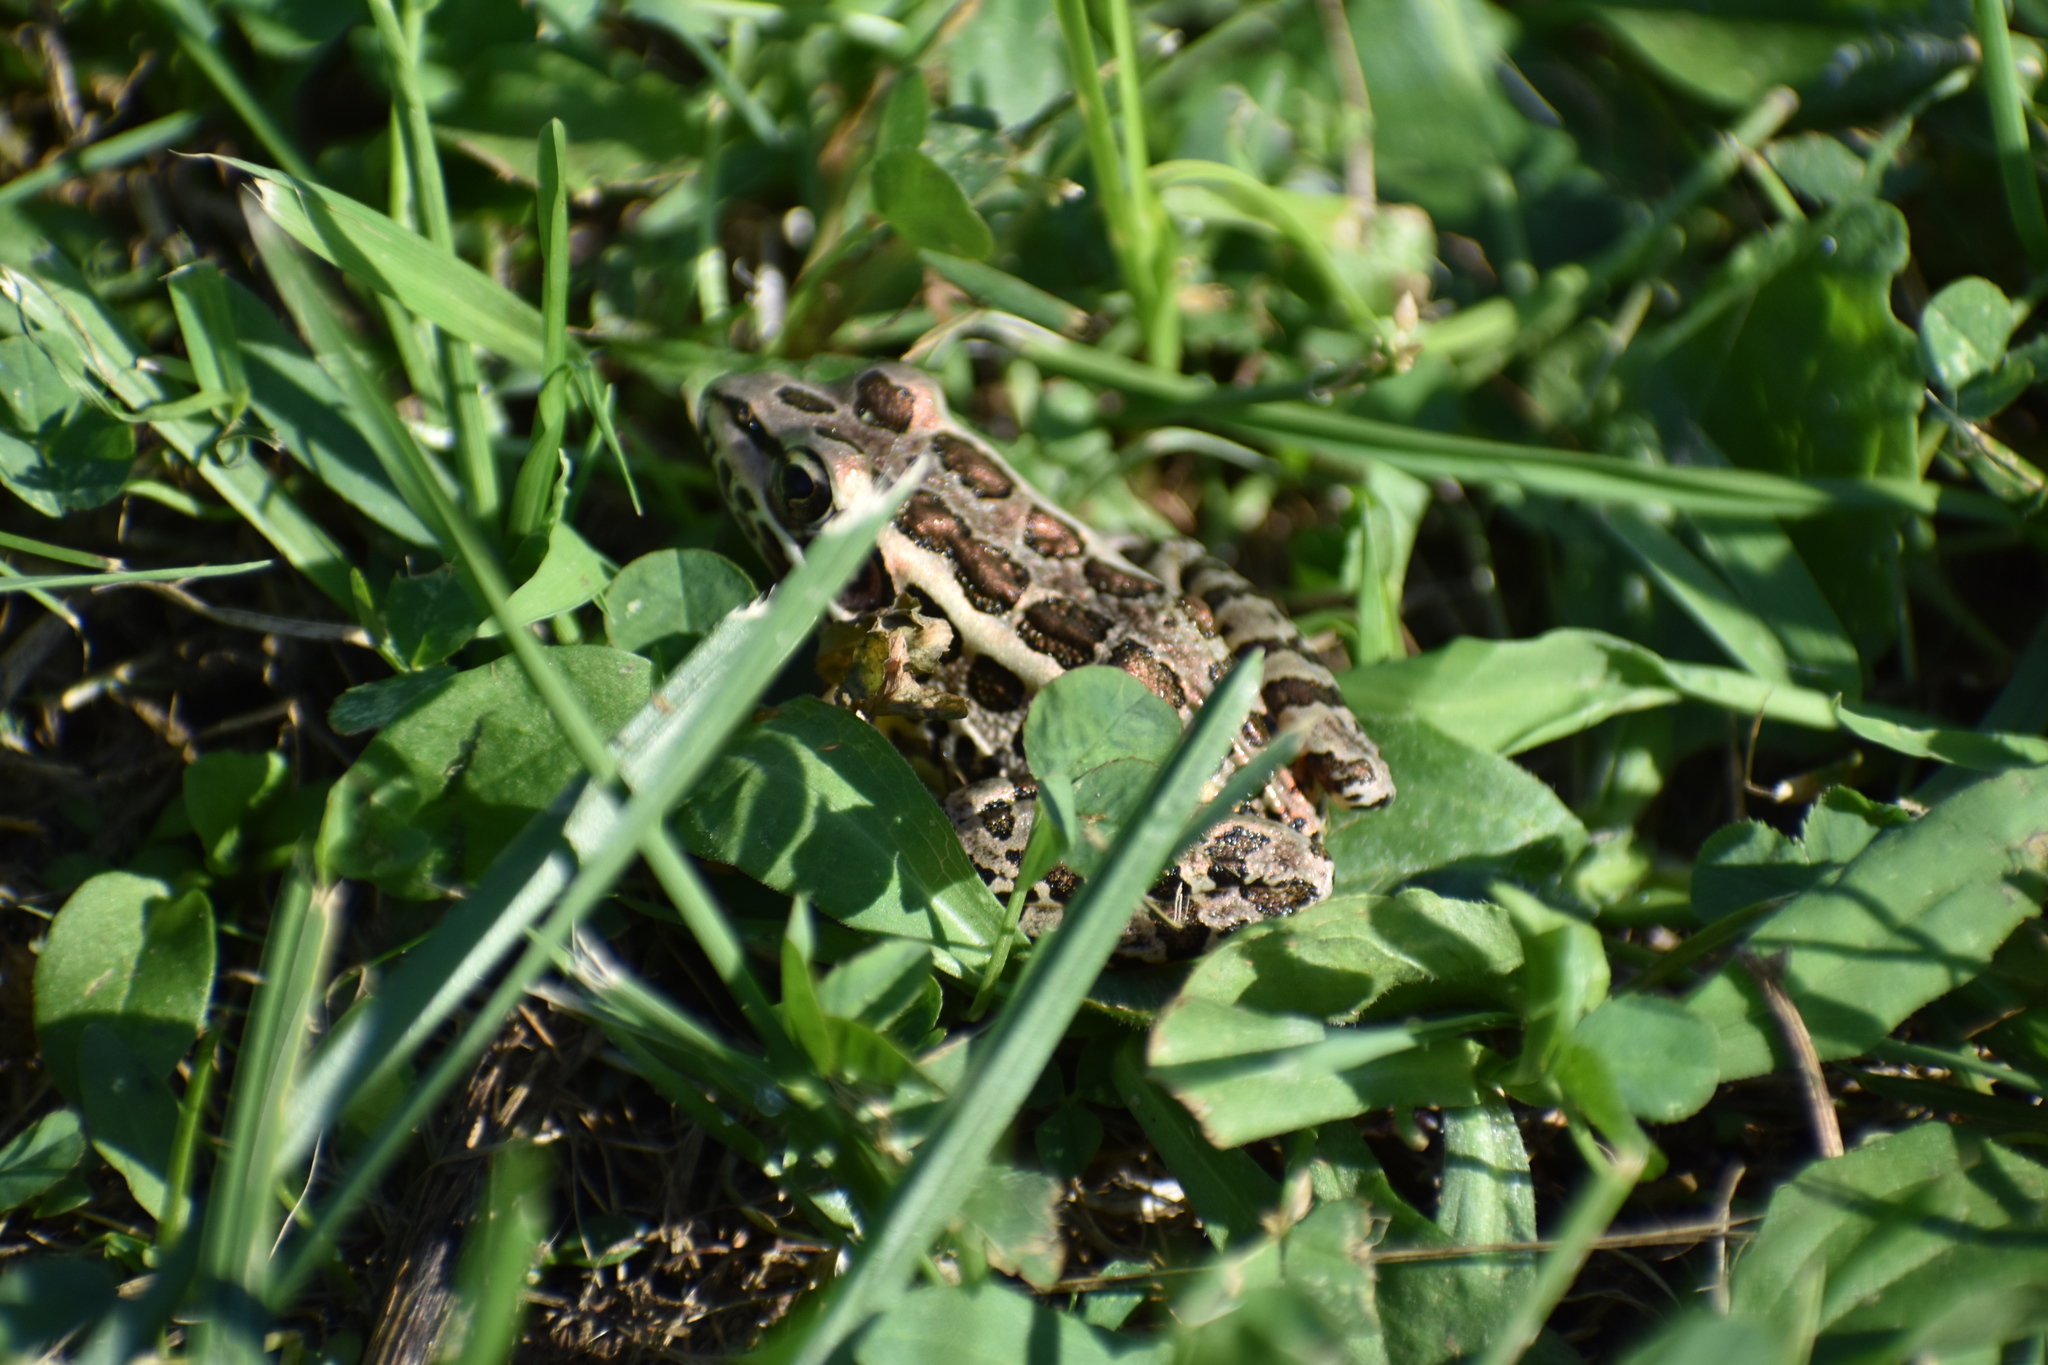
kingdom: Animalia
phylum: Chordata
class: Amphibia
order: Anura
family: Ranidae
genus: Lithobates
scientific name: Lithobates palustris
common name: Pickerel frog
